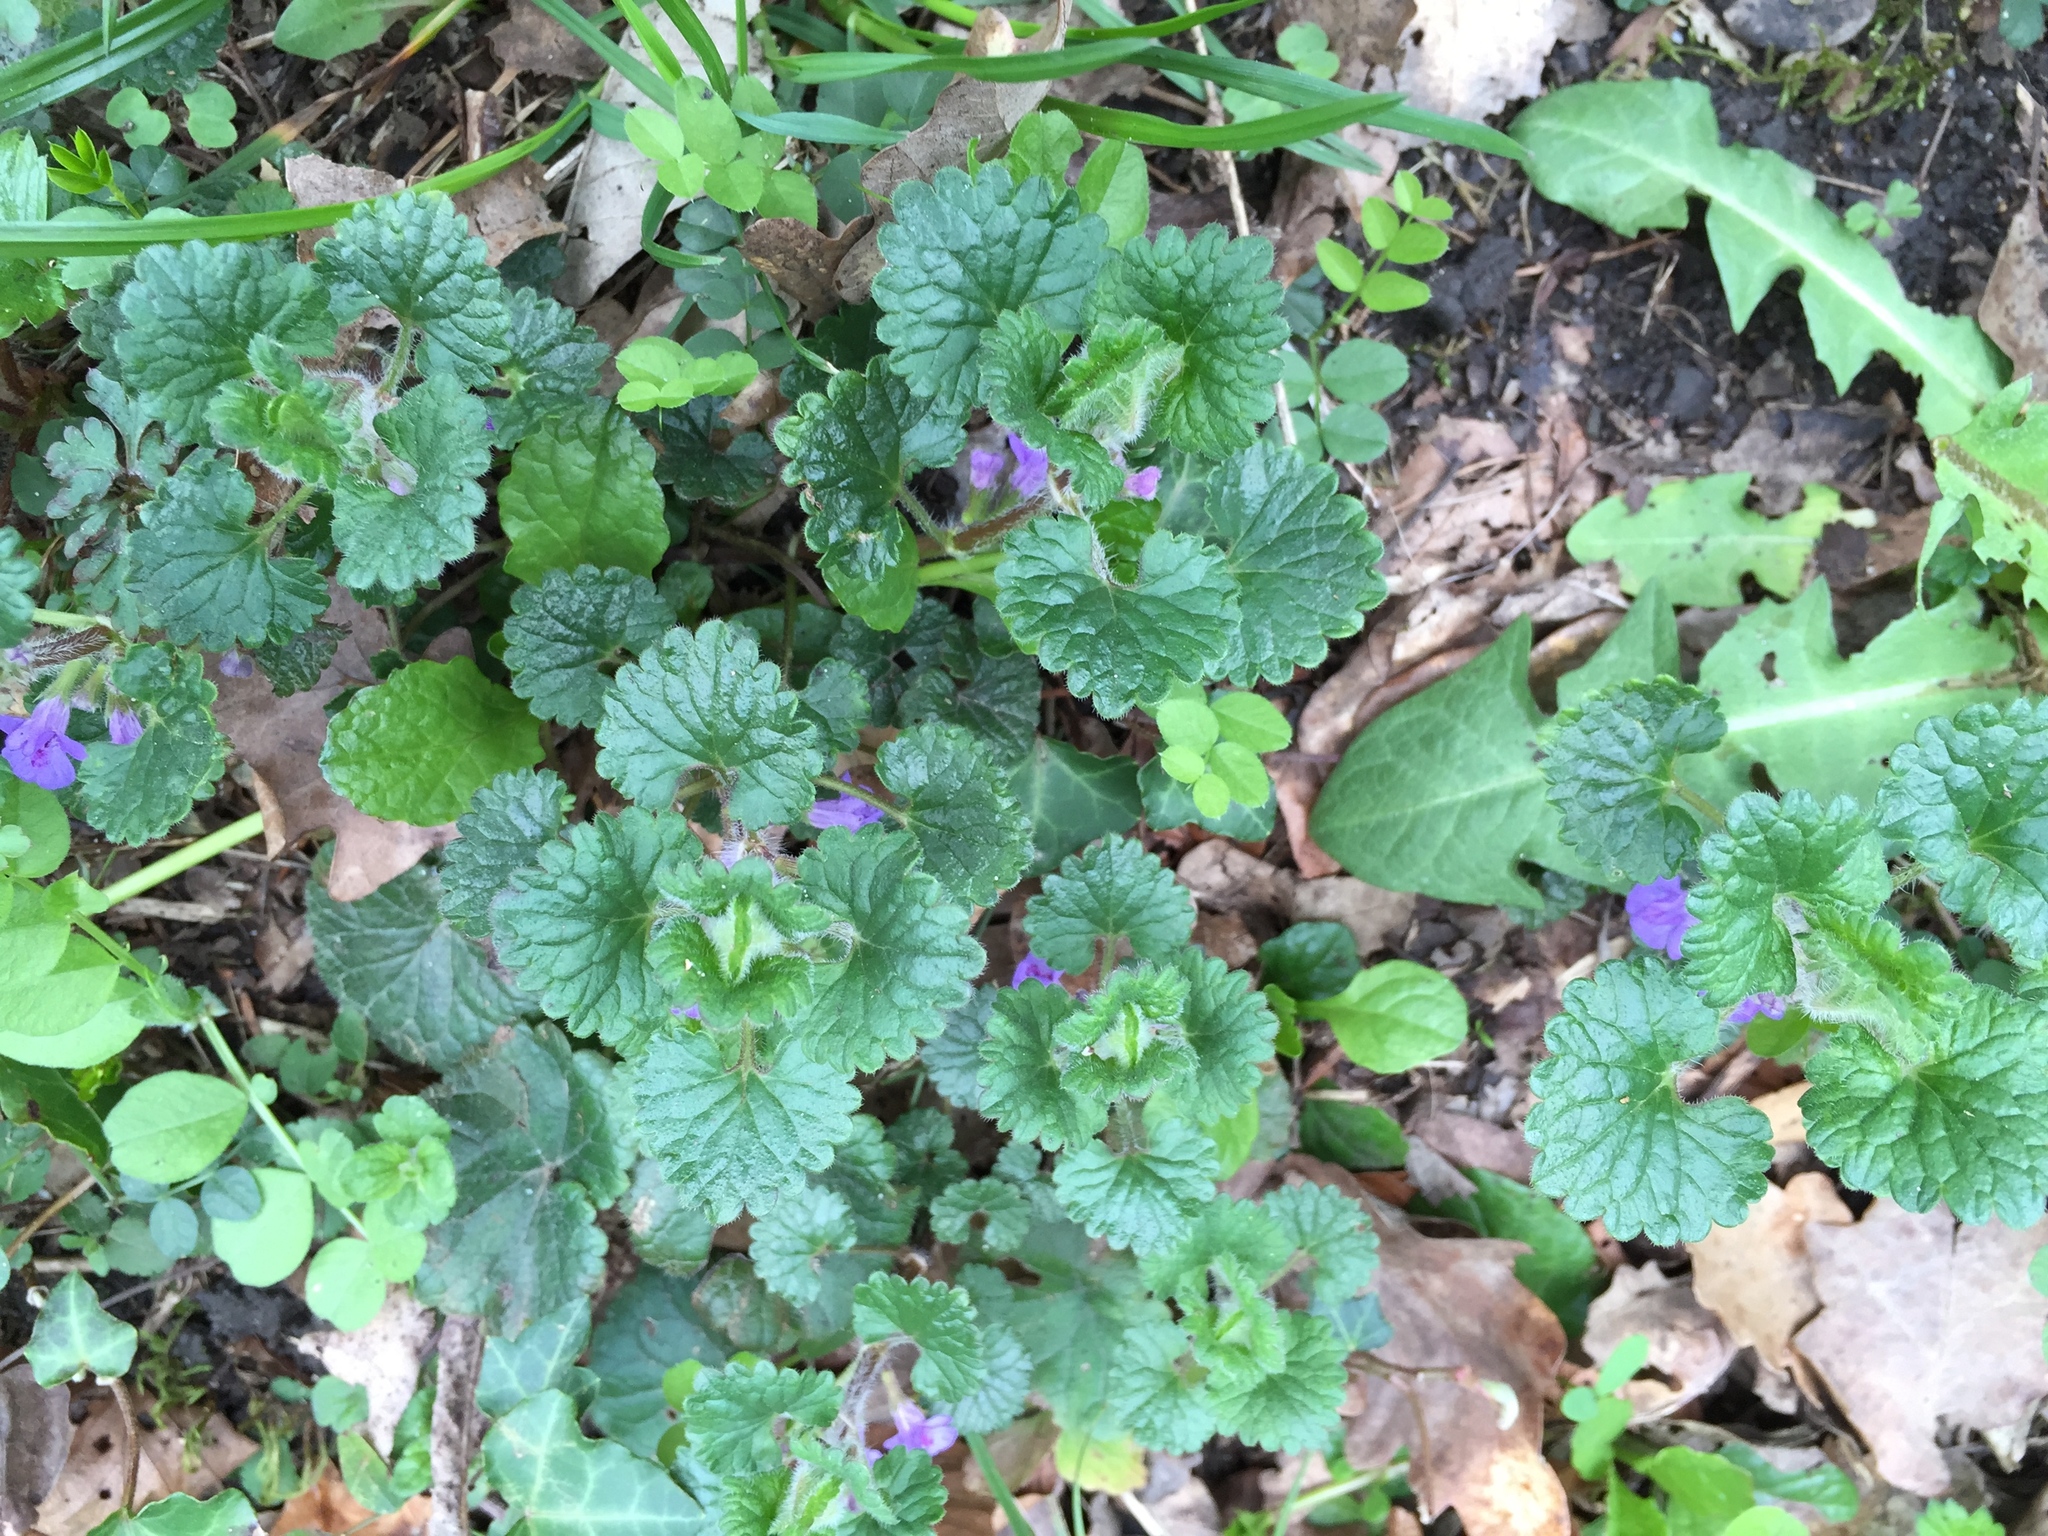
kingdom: Plantae
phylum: Tracheophyta
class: Magnoliopsida
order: Lamiales
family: Lamiaceae
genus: Glechoma
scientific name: Glechoma hederacea
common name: Ground ivy
